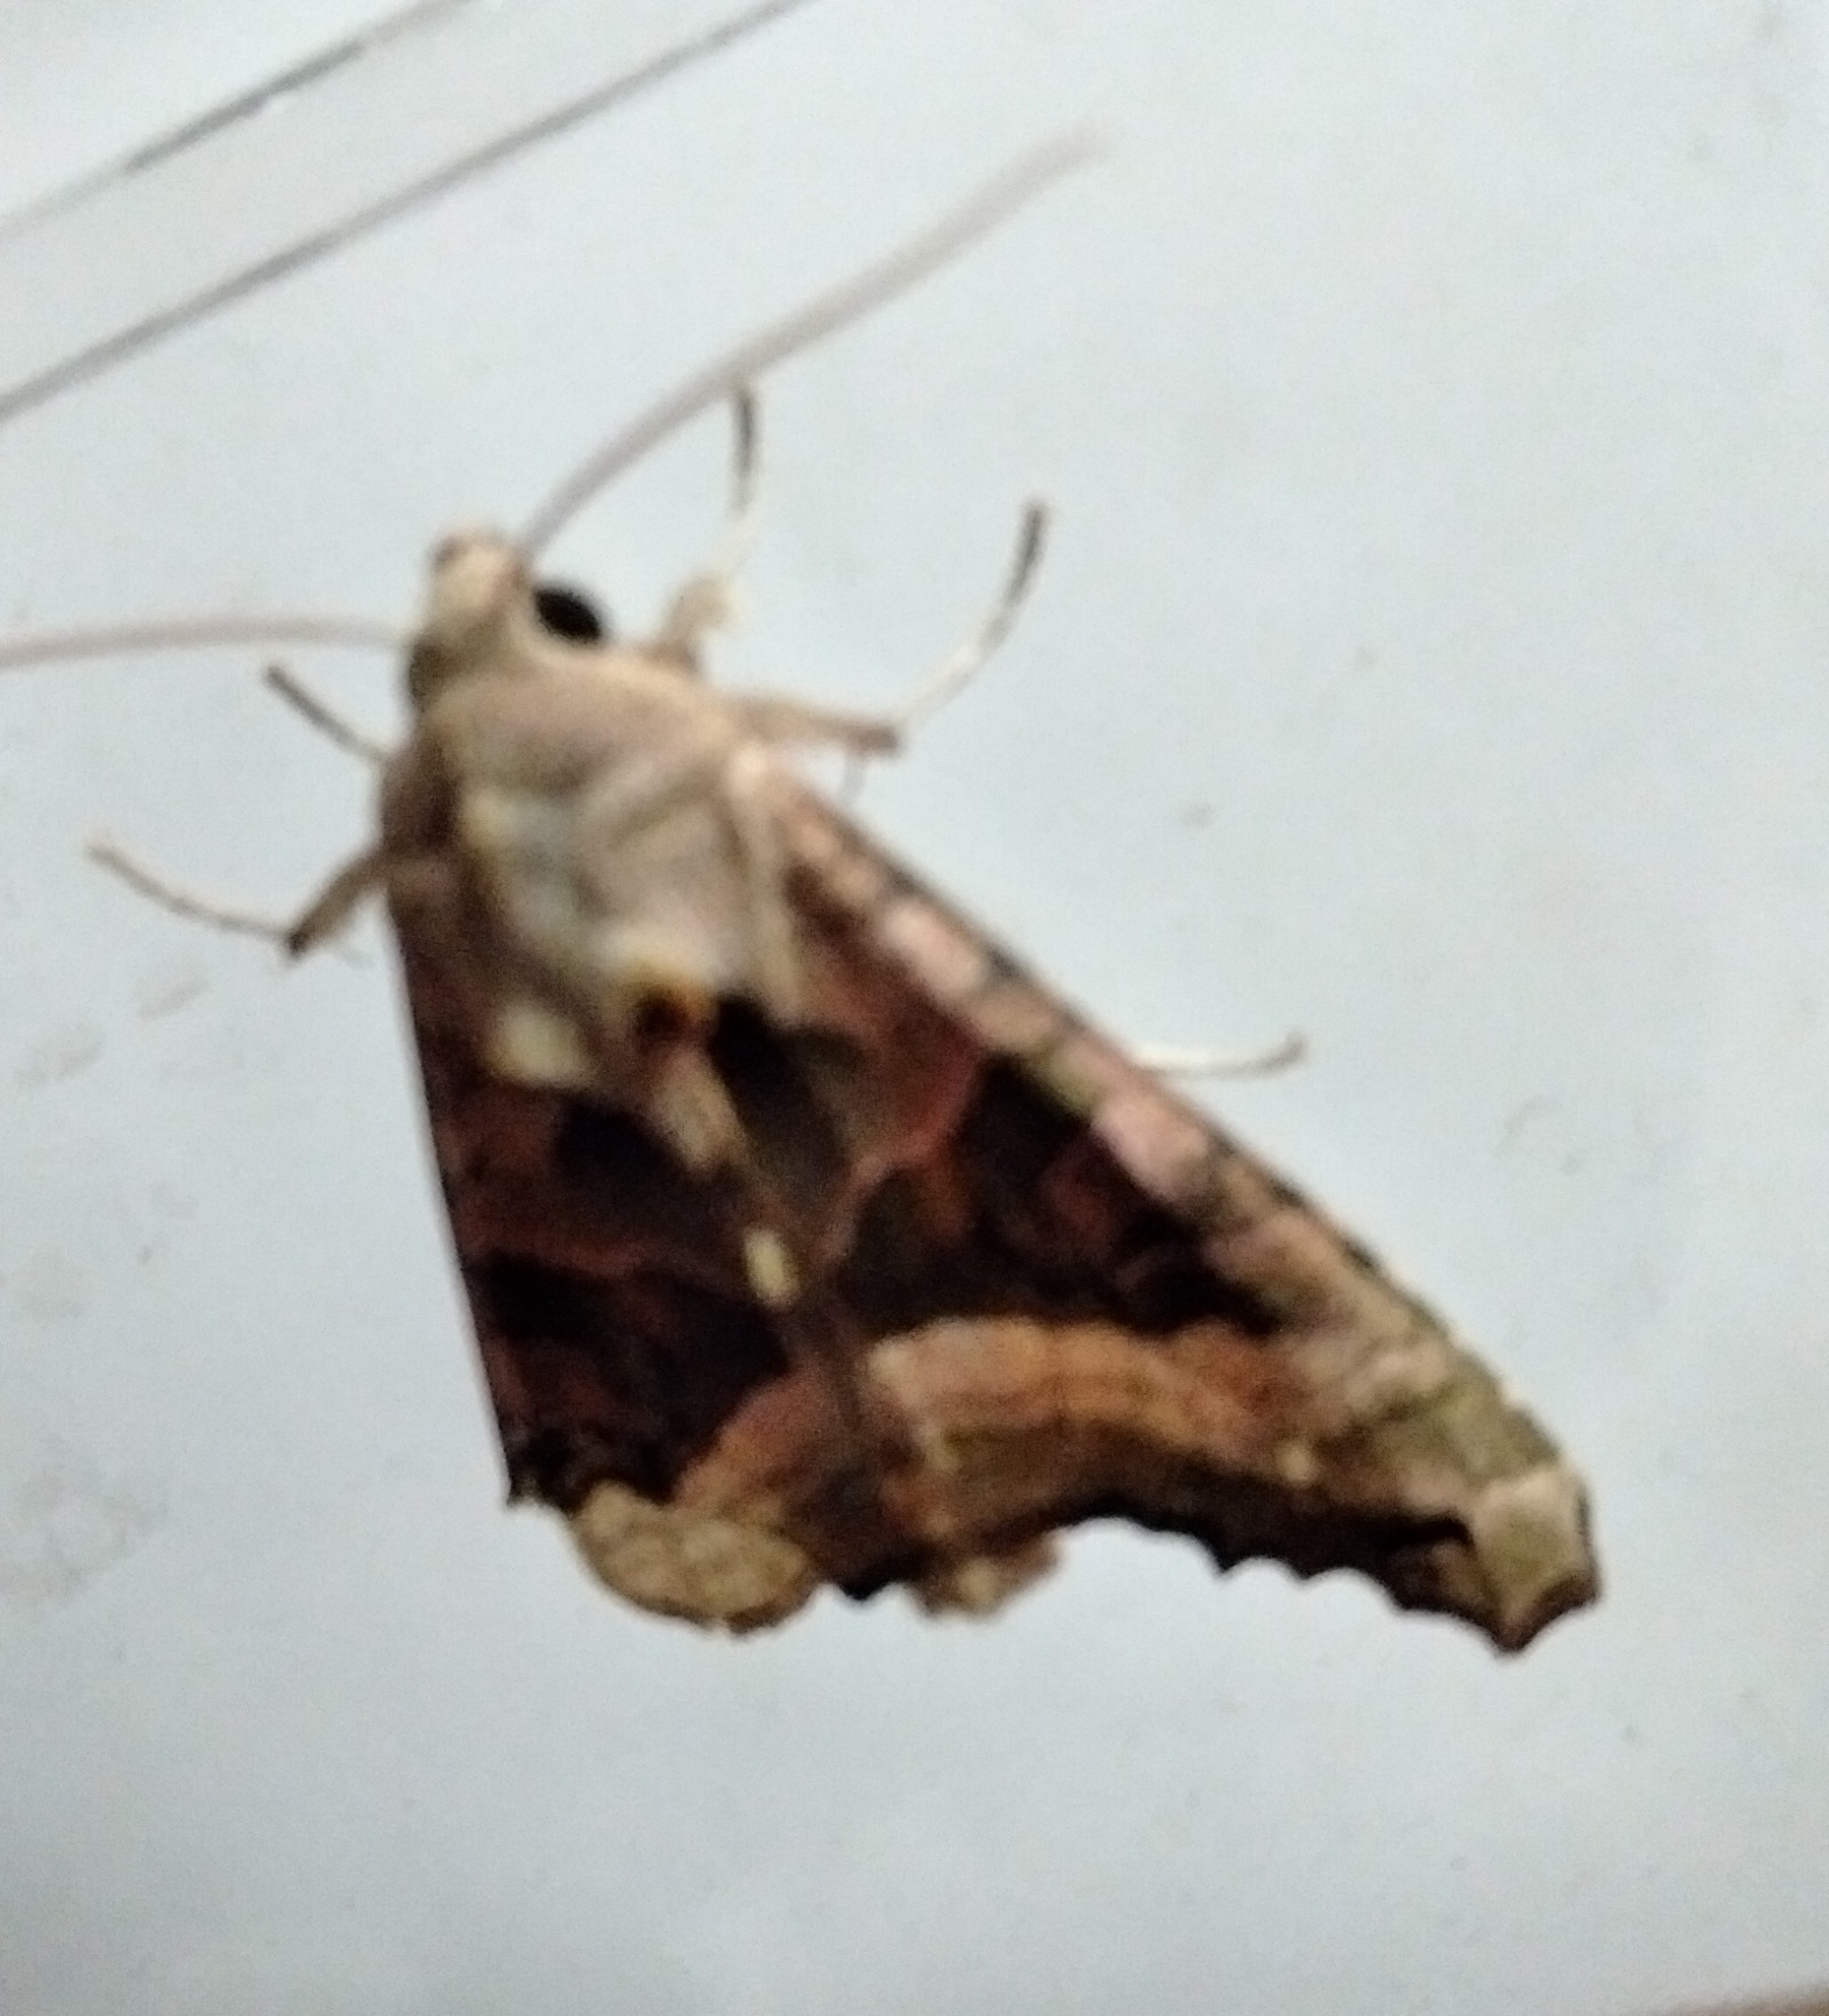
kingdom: Animalia
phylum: Arthropoda
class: Insecta
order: Lepidoptera
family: Noctuidae
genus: Phlogophora
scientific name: Phlogophora meticulosa
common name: Angle shades
